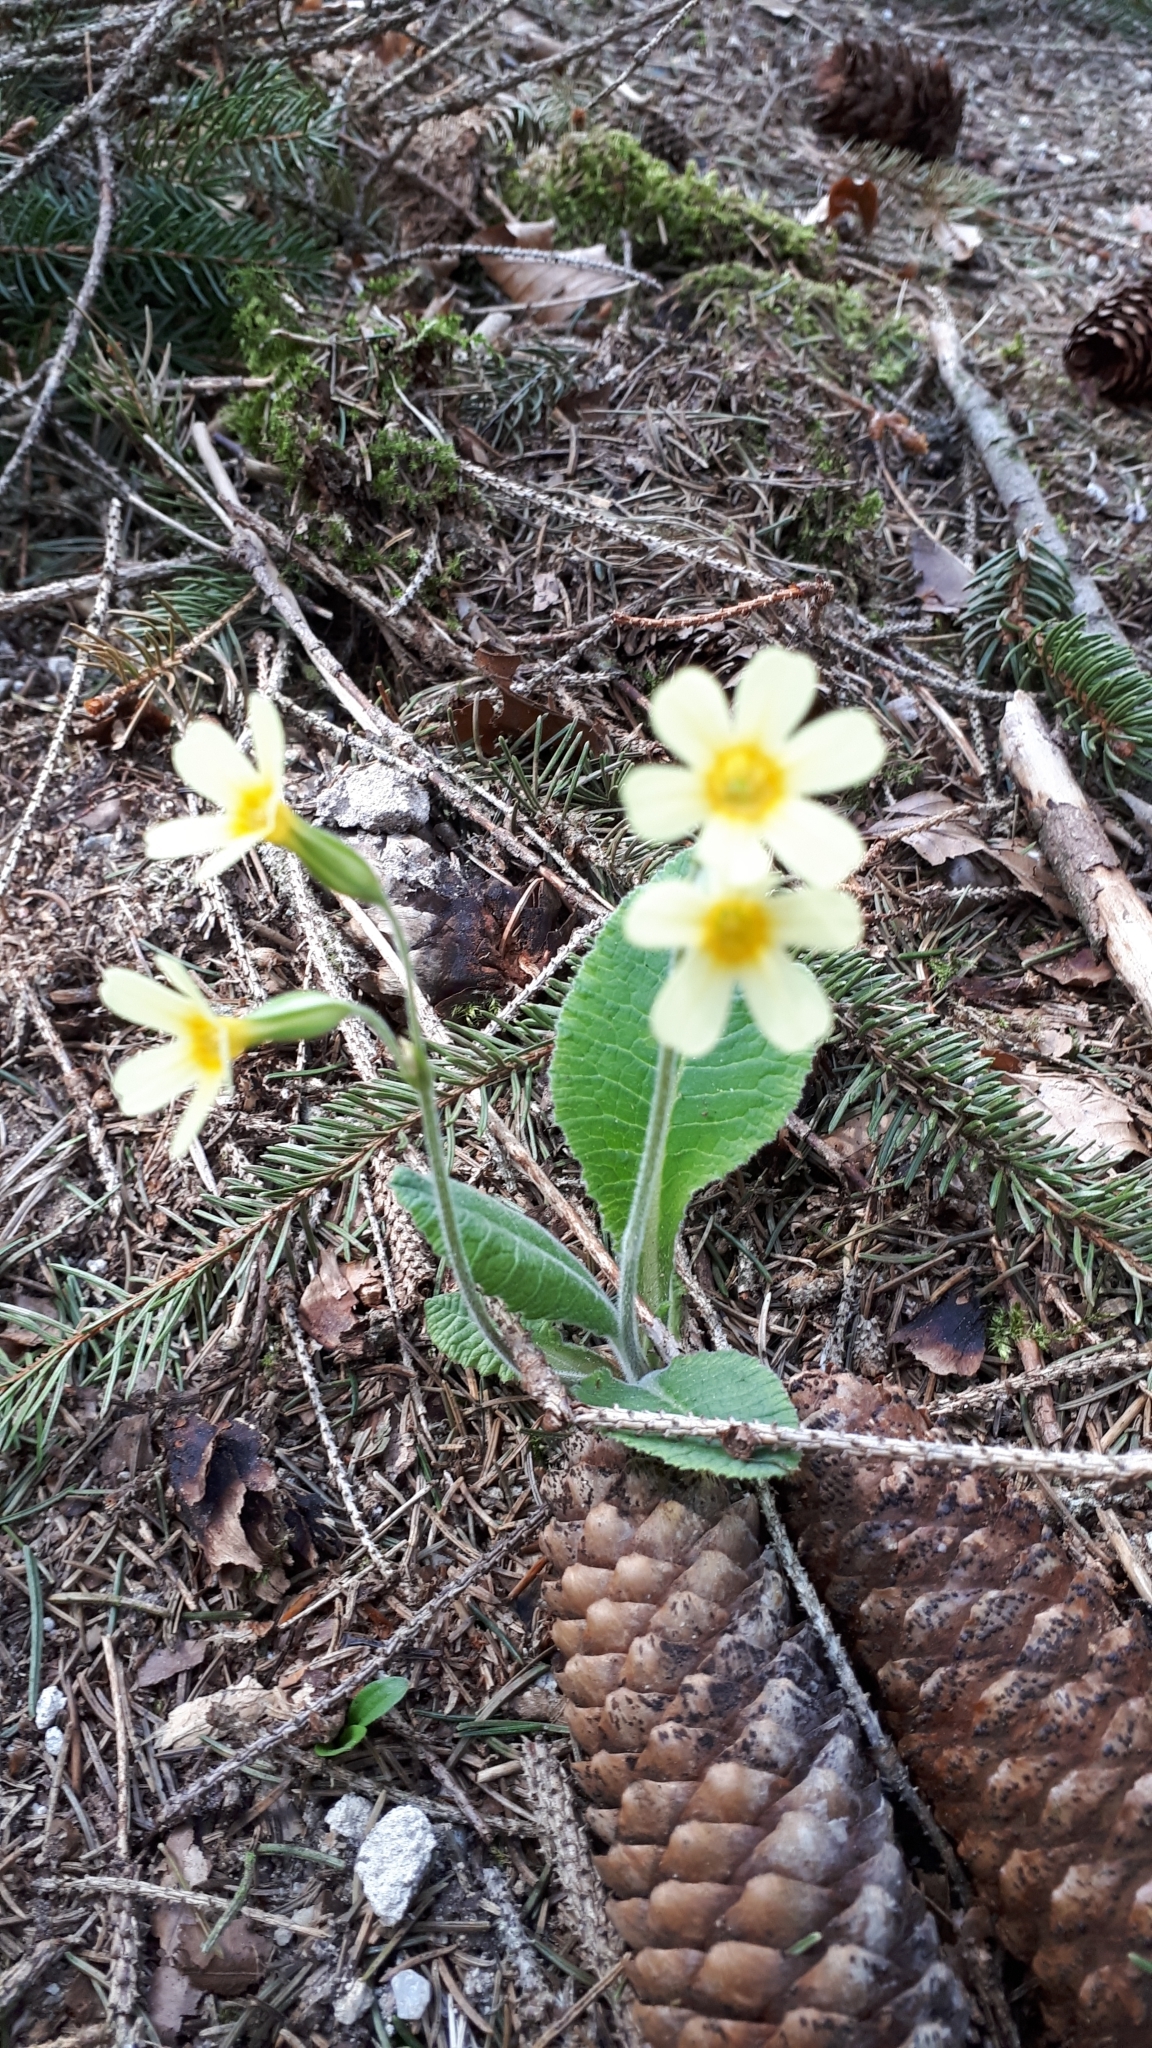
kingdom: Plantae
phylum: Tracheophyta
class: Magnoliopsida
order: Ericales
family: Primulaceae
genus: Primula
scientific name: Primula elatior
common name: Oxlip
